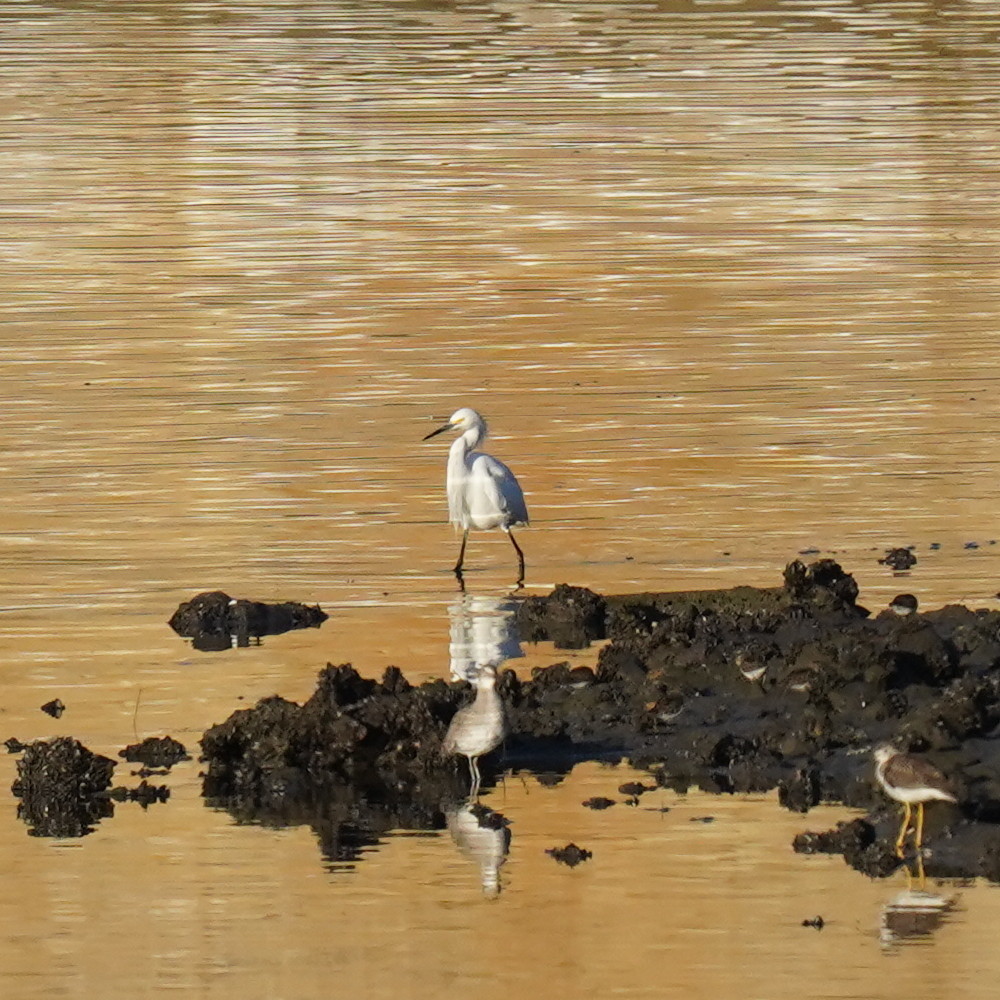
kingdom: Animalia
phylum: Chordata
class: Aves
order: Pelecaniformes
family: Ardeidae
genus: Egretta
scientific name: Egretta thula
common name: Snowy egret
